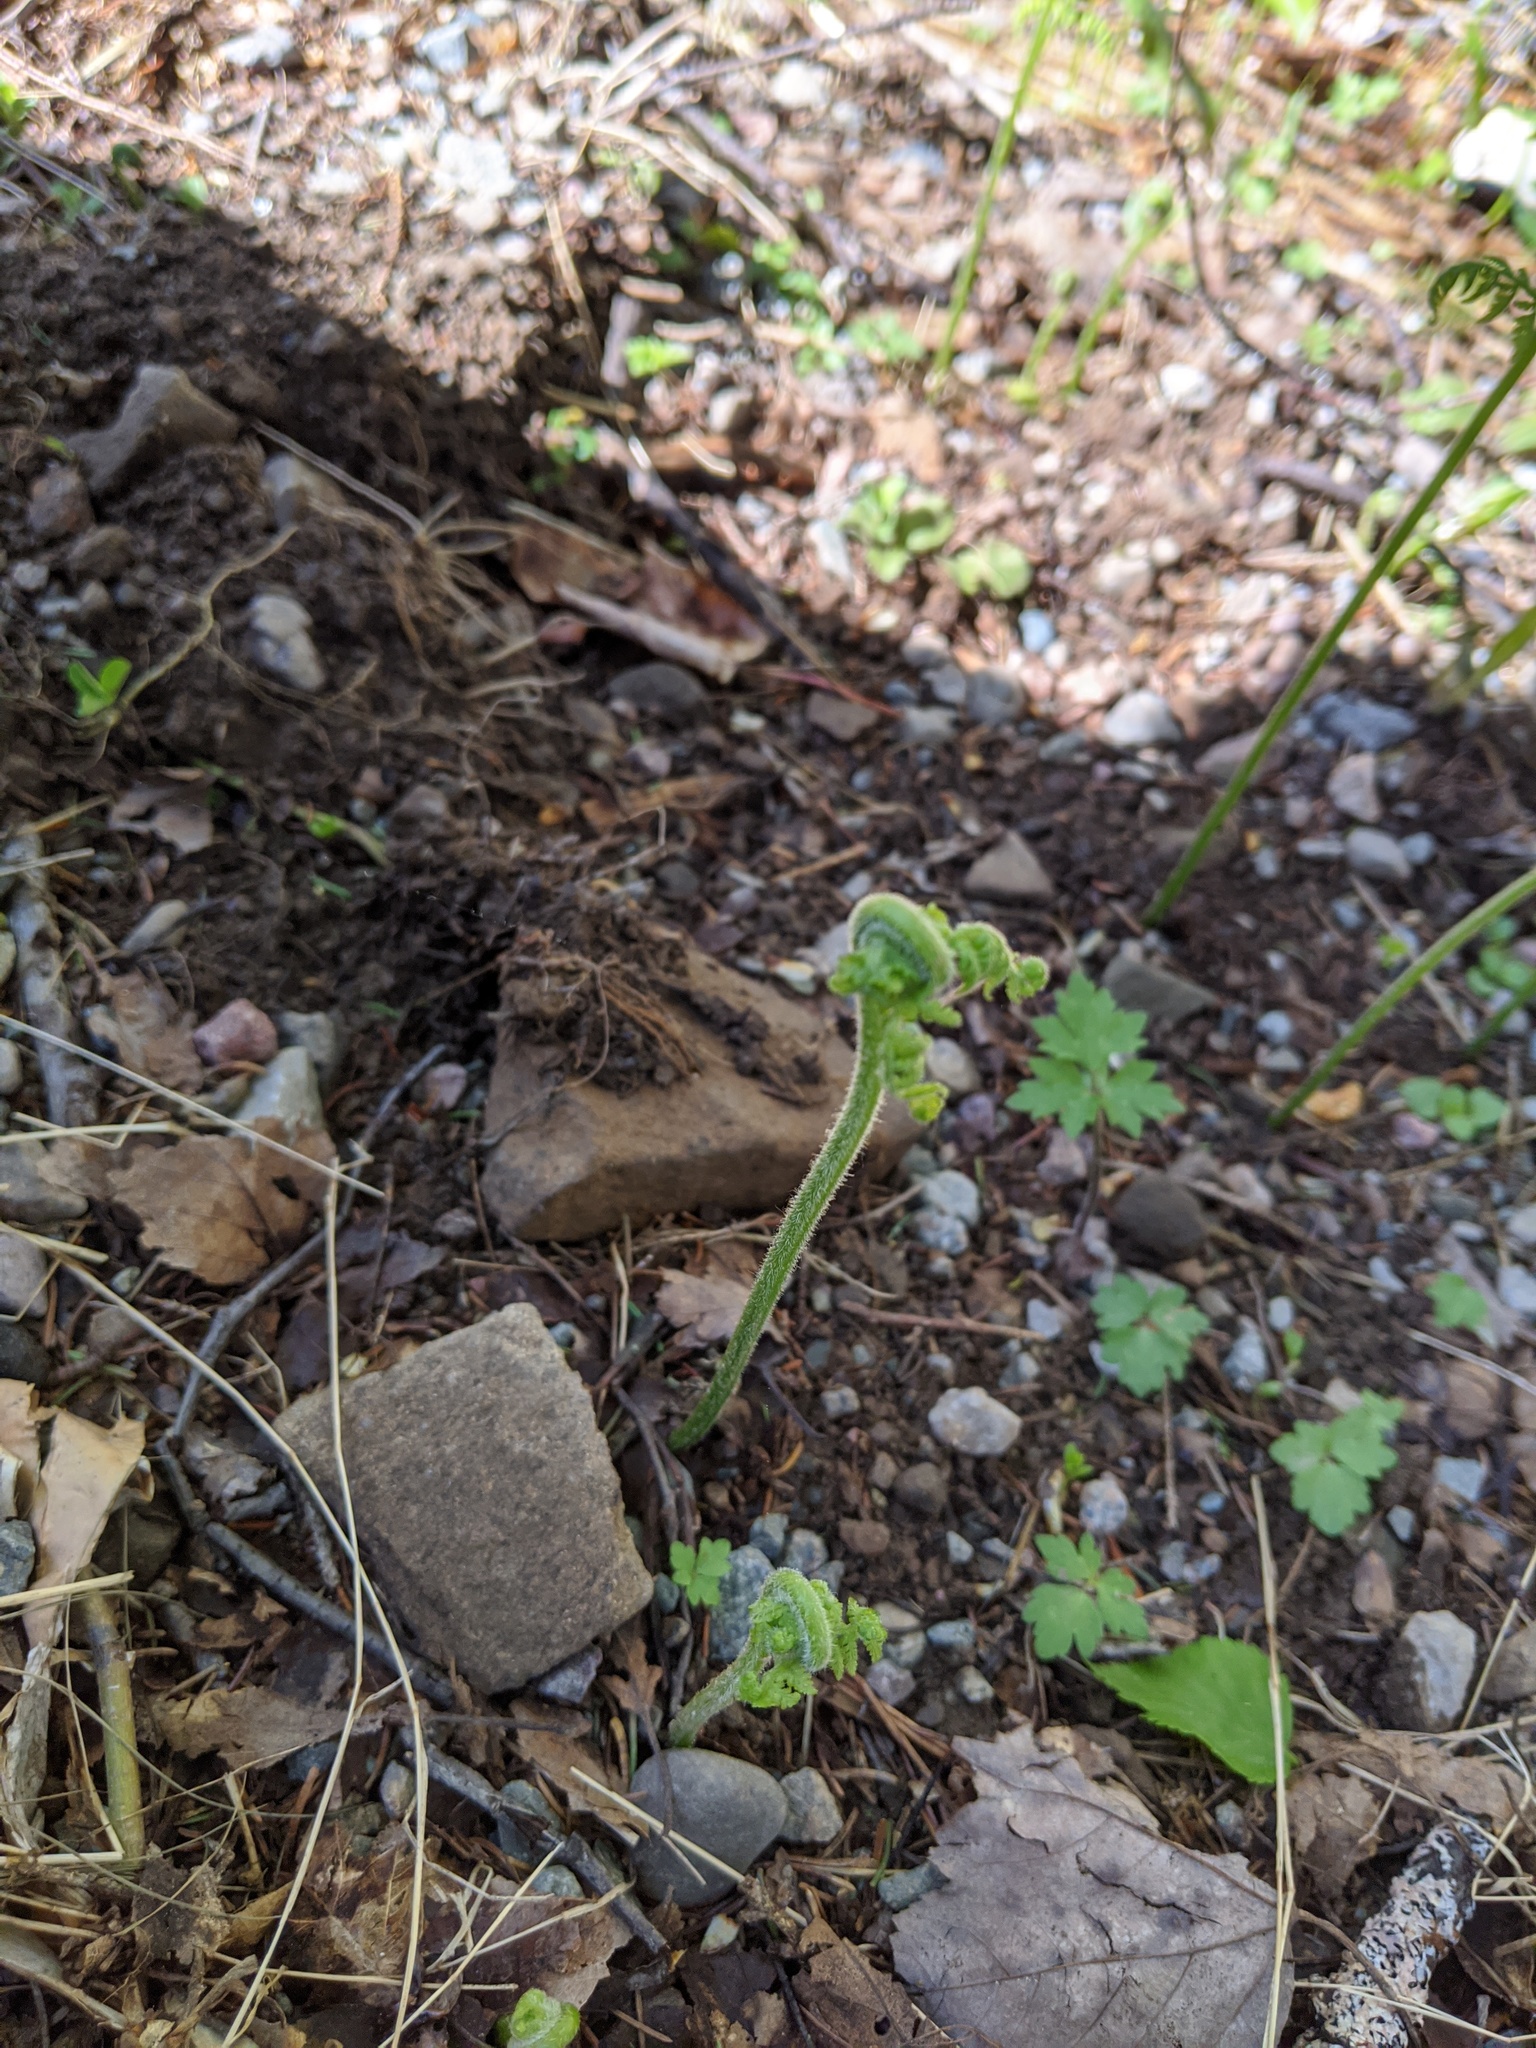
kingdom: Plantae
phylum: Tracheophyta
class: Polypodiopsida
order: Polypodiales
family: Dennstaedtiaceae
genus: Sitobolium
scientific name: Sitobolium punctilobum
